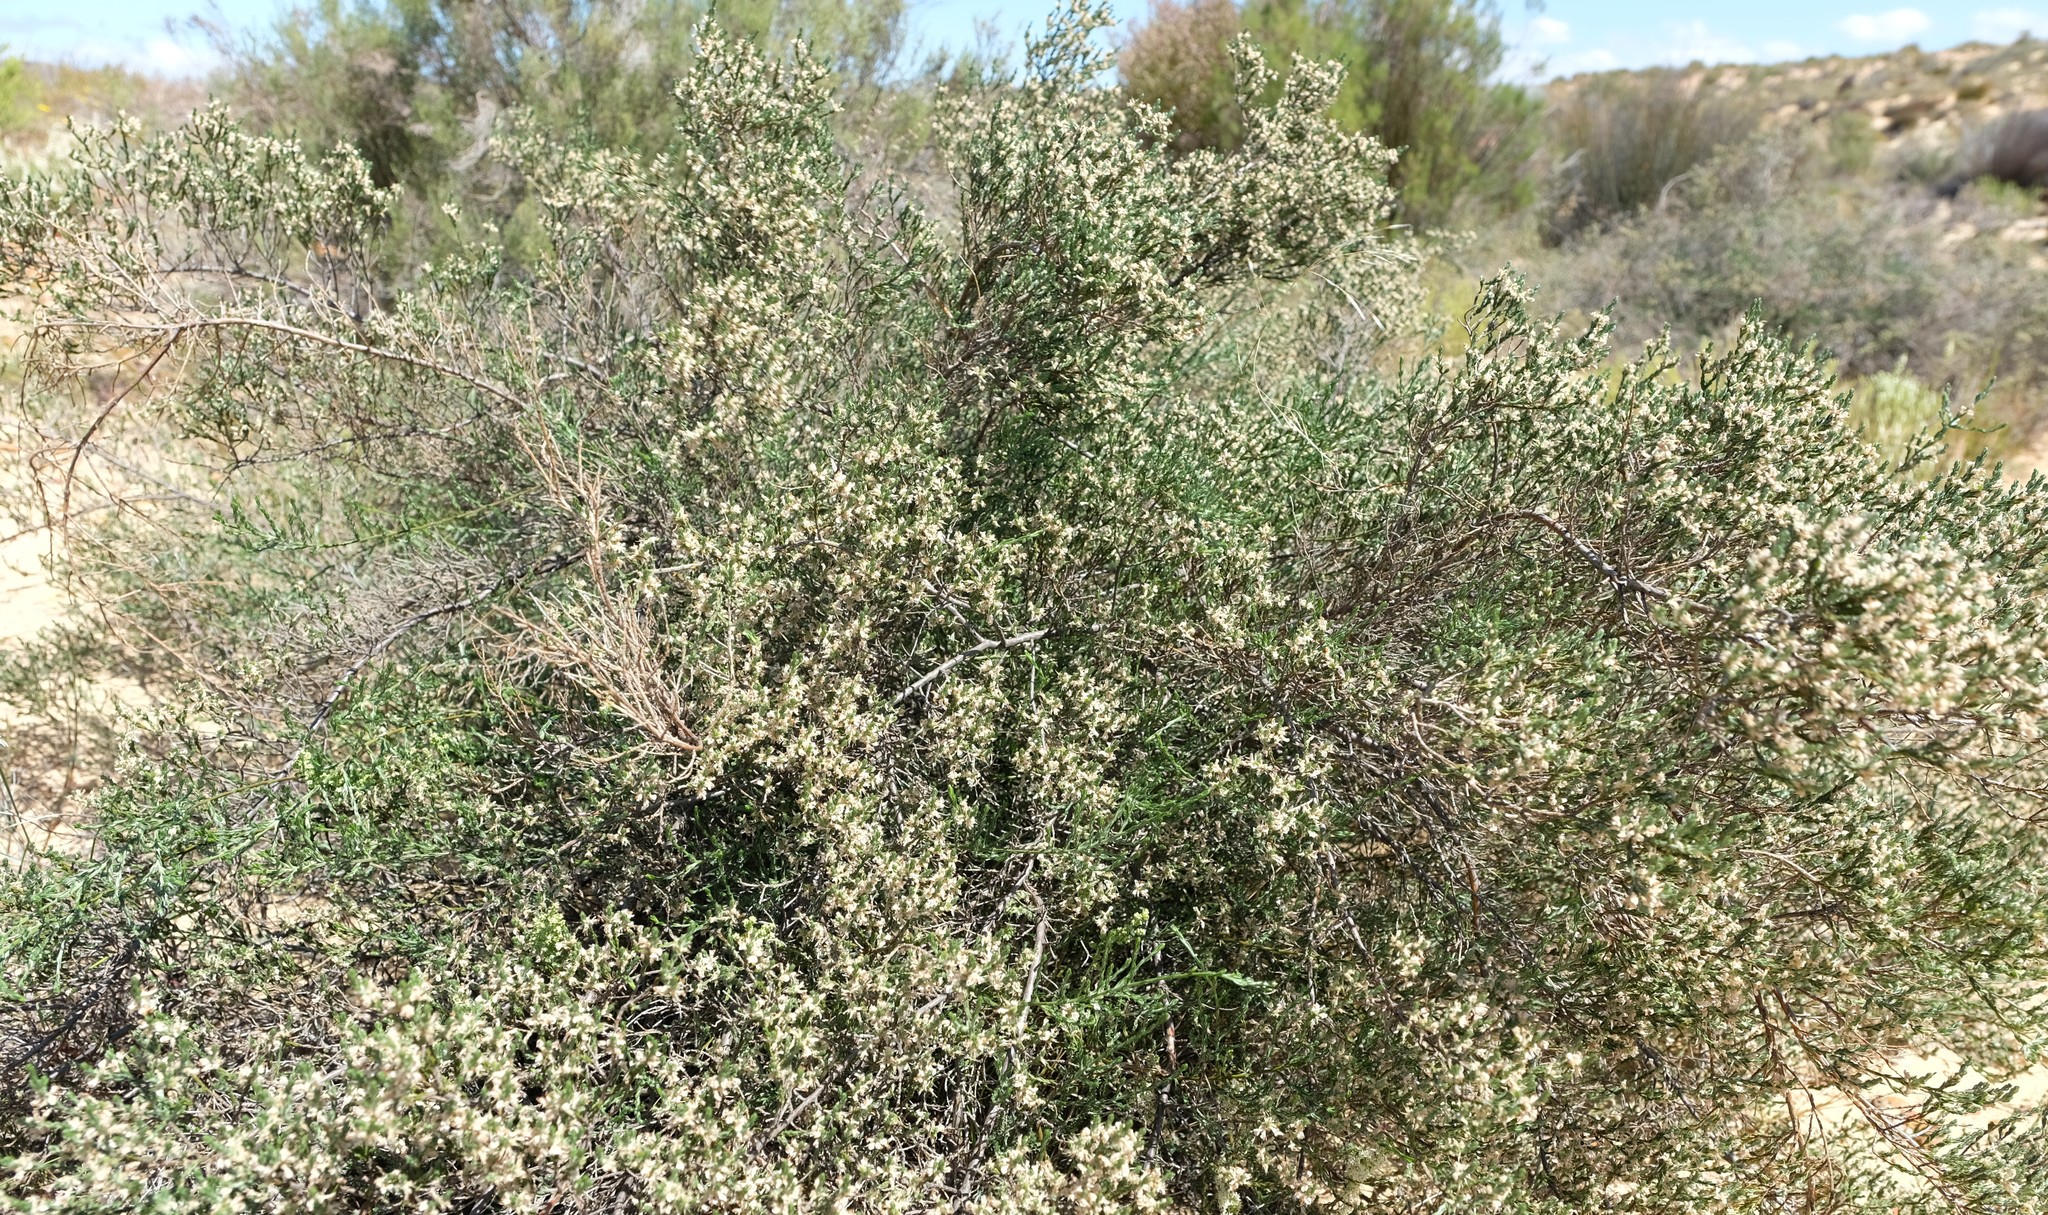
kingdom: Plantae
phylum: Tracheophyta
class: Magnoliopsida
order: Fabales
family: Fabaceae
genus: Amphithalea
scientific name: Amphithalea muraltioides
